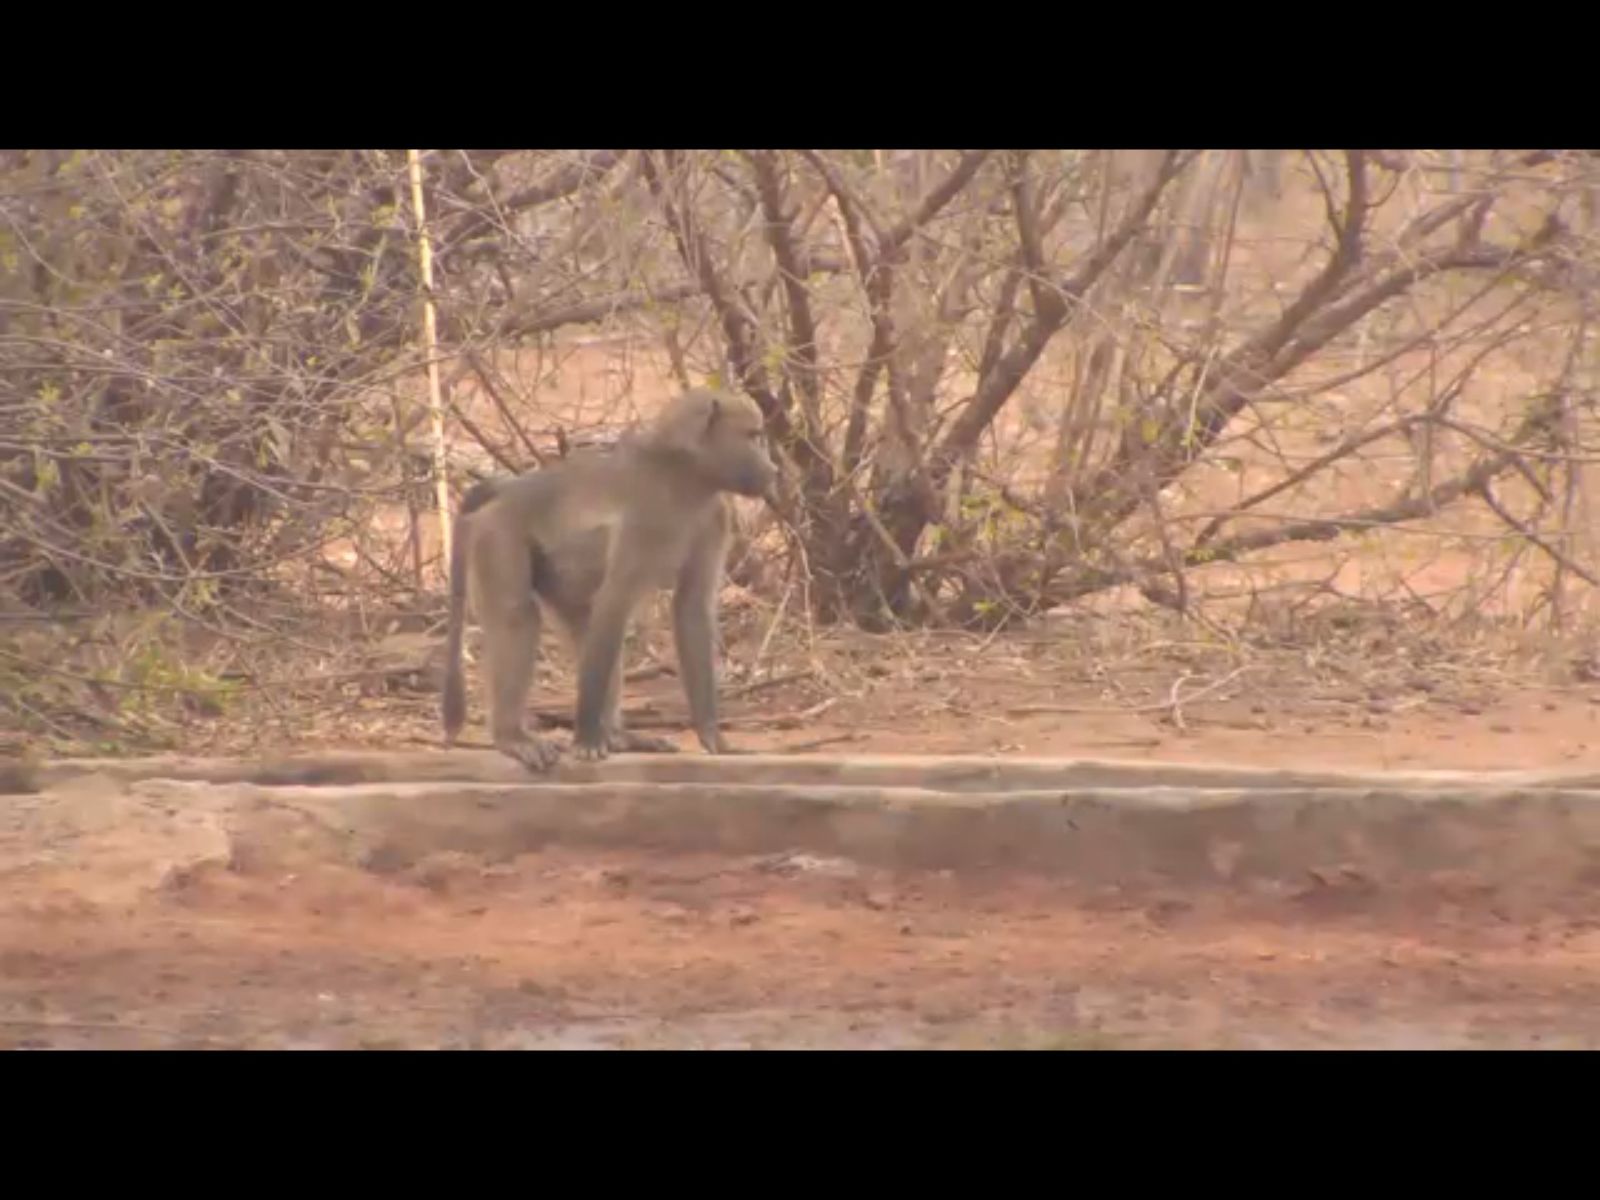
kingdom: Animalia
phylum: Chordata
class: Mammalia
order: Primates
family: Cercopithecidae
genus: Papio
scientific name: Papio ursinus
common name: Chacma baboon
